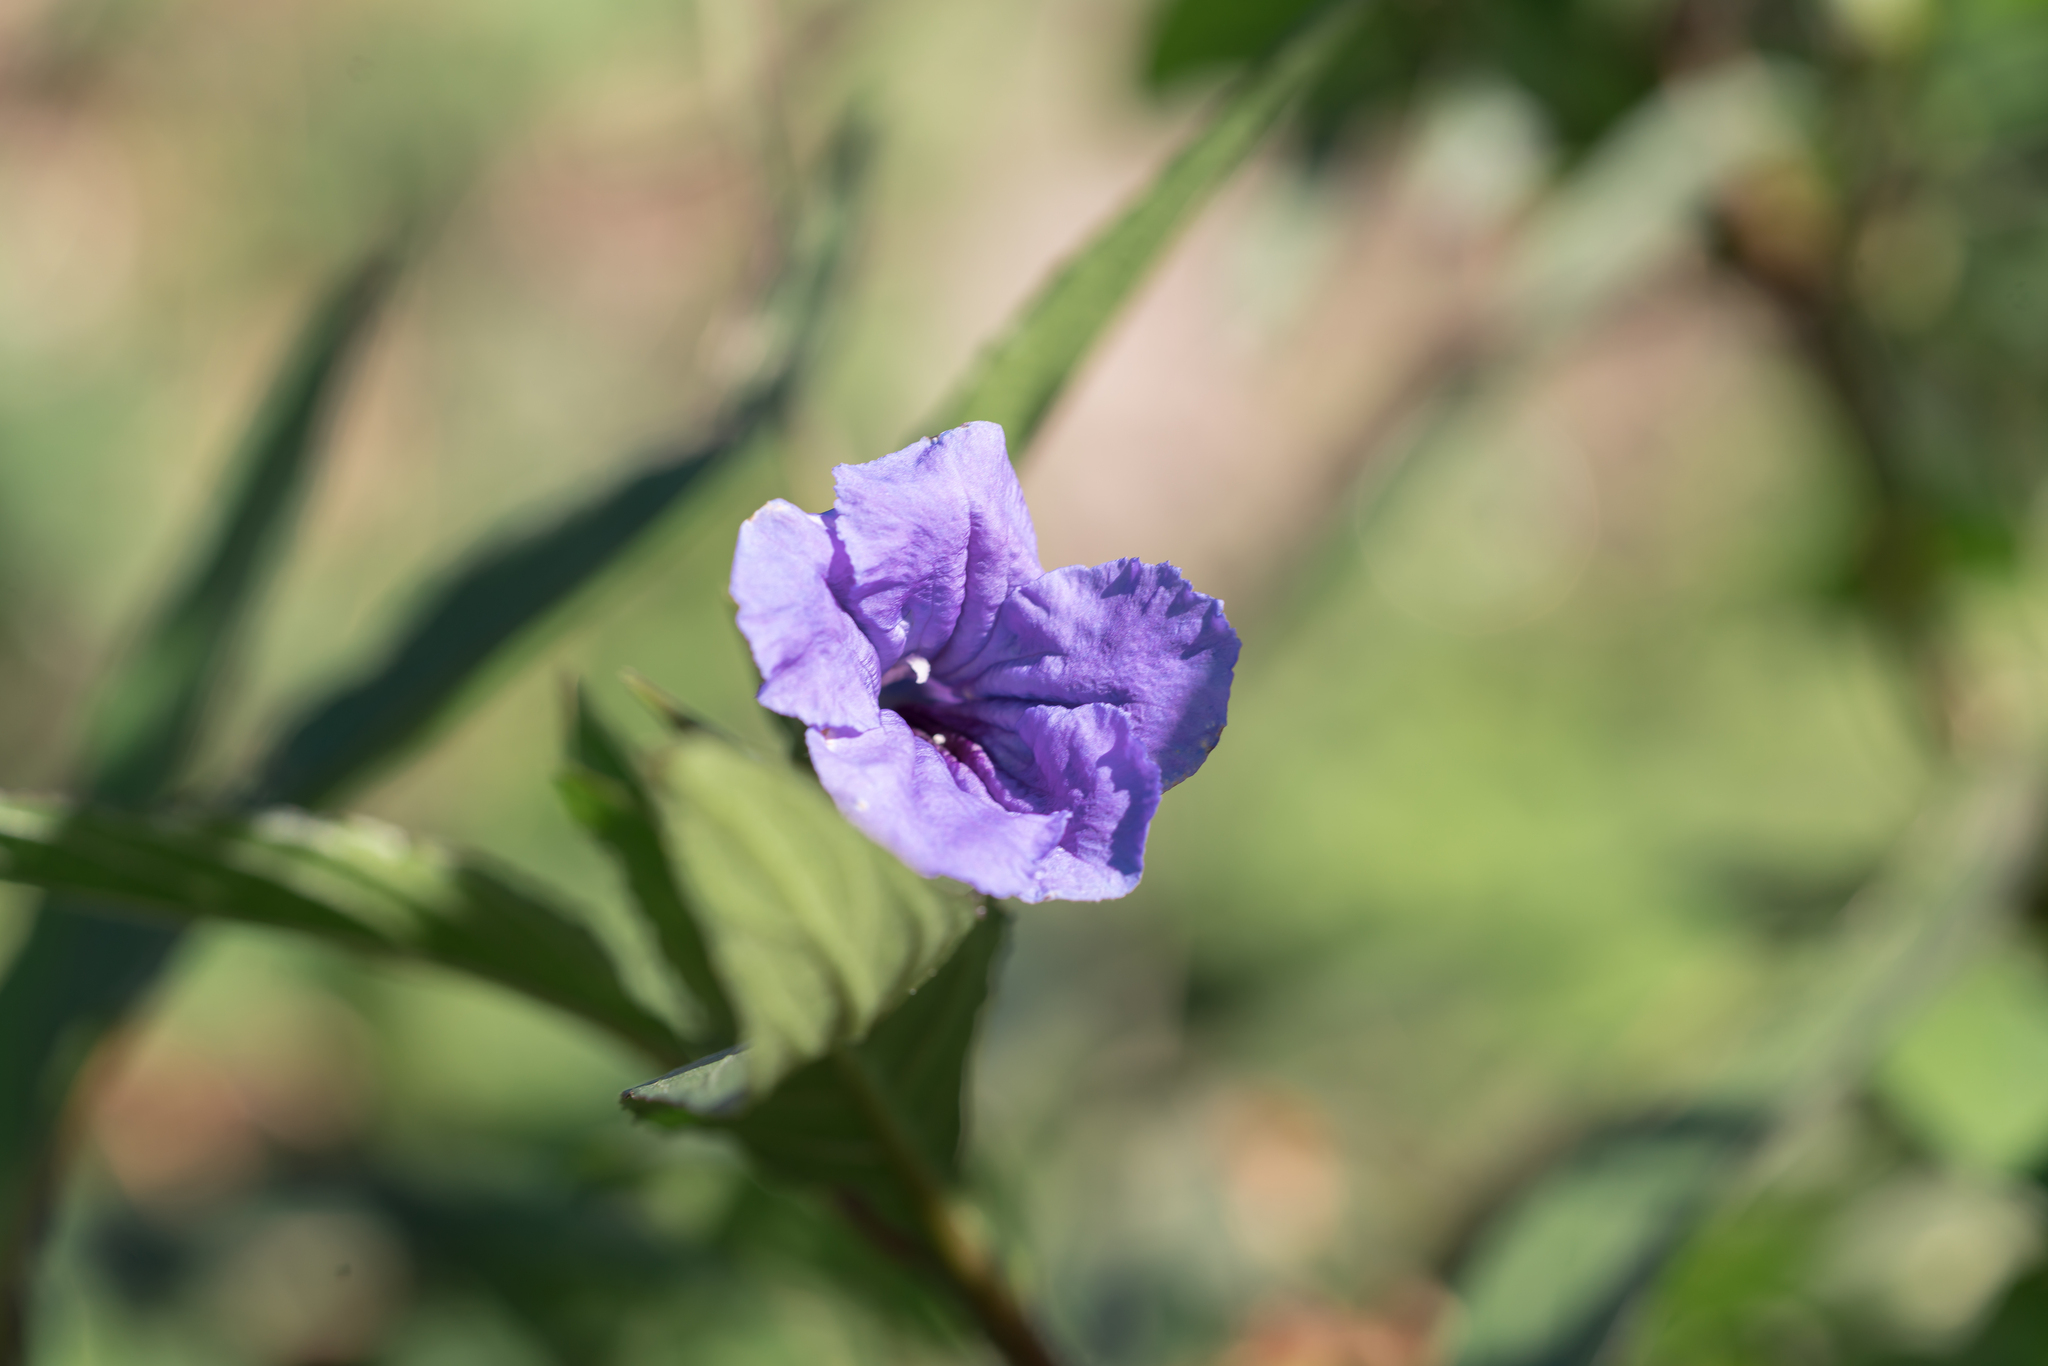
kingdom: Plantae
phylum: Tracheophyta
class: Magnoliopsida
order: Lamiales
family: Acanthaceae
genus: Ruellia
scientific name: Ruellia simplex
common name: Softseed wild petunia
